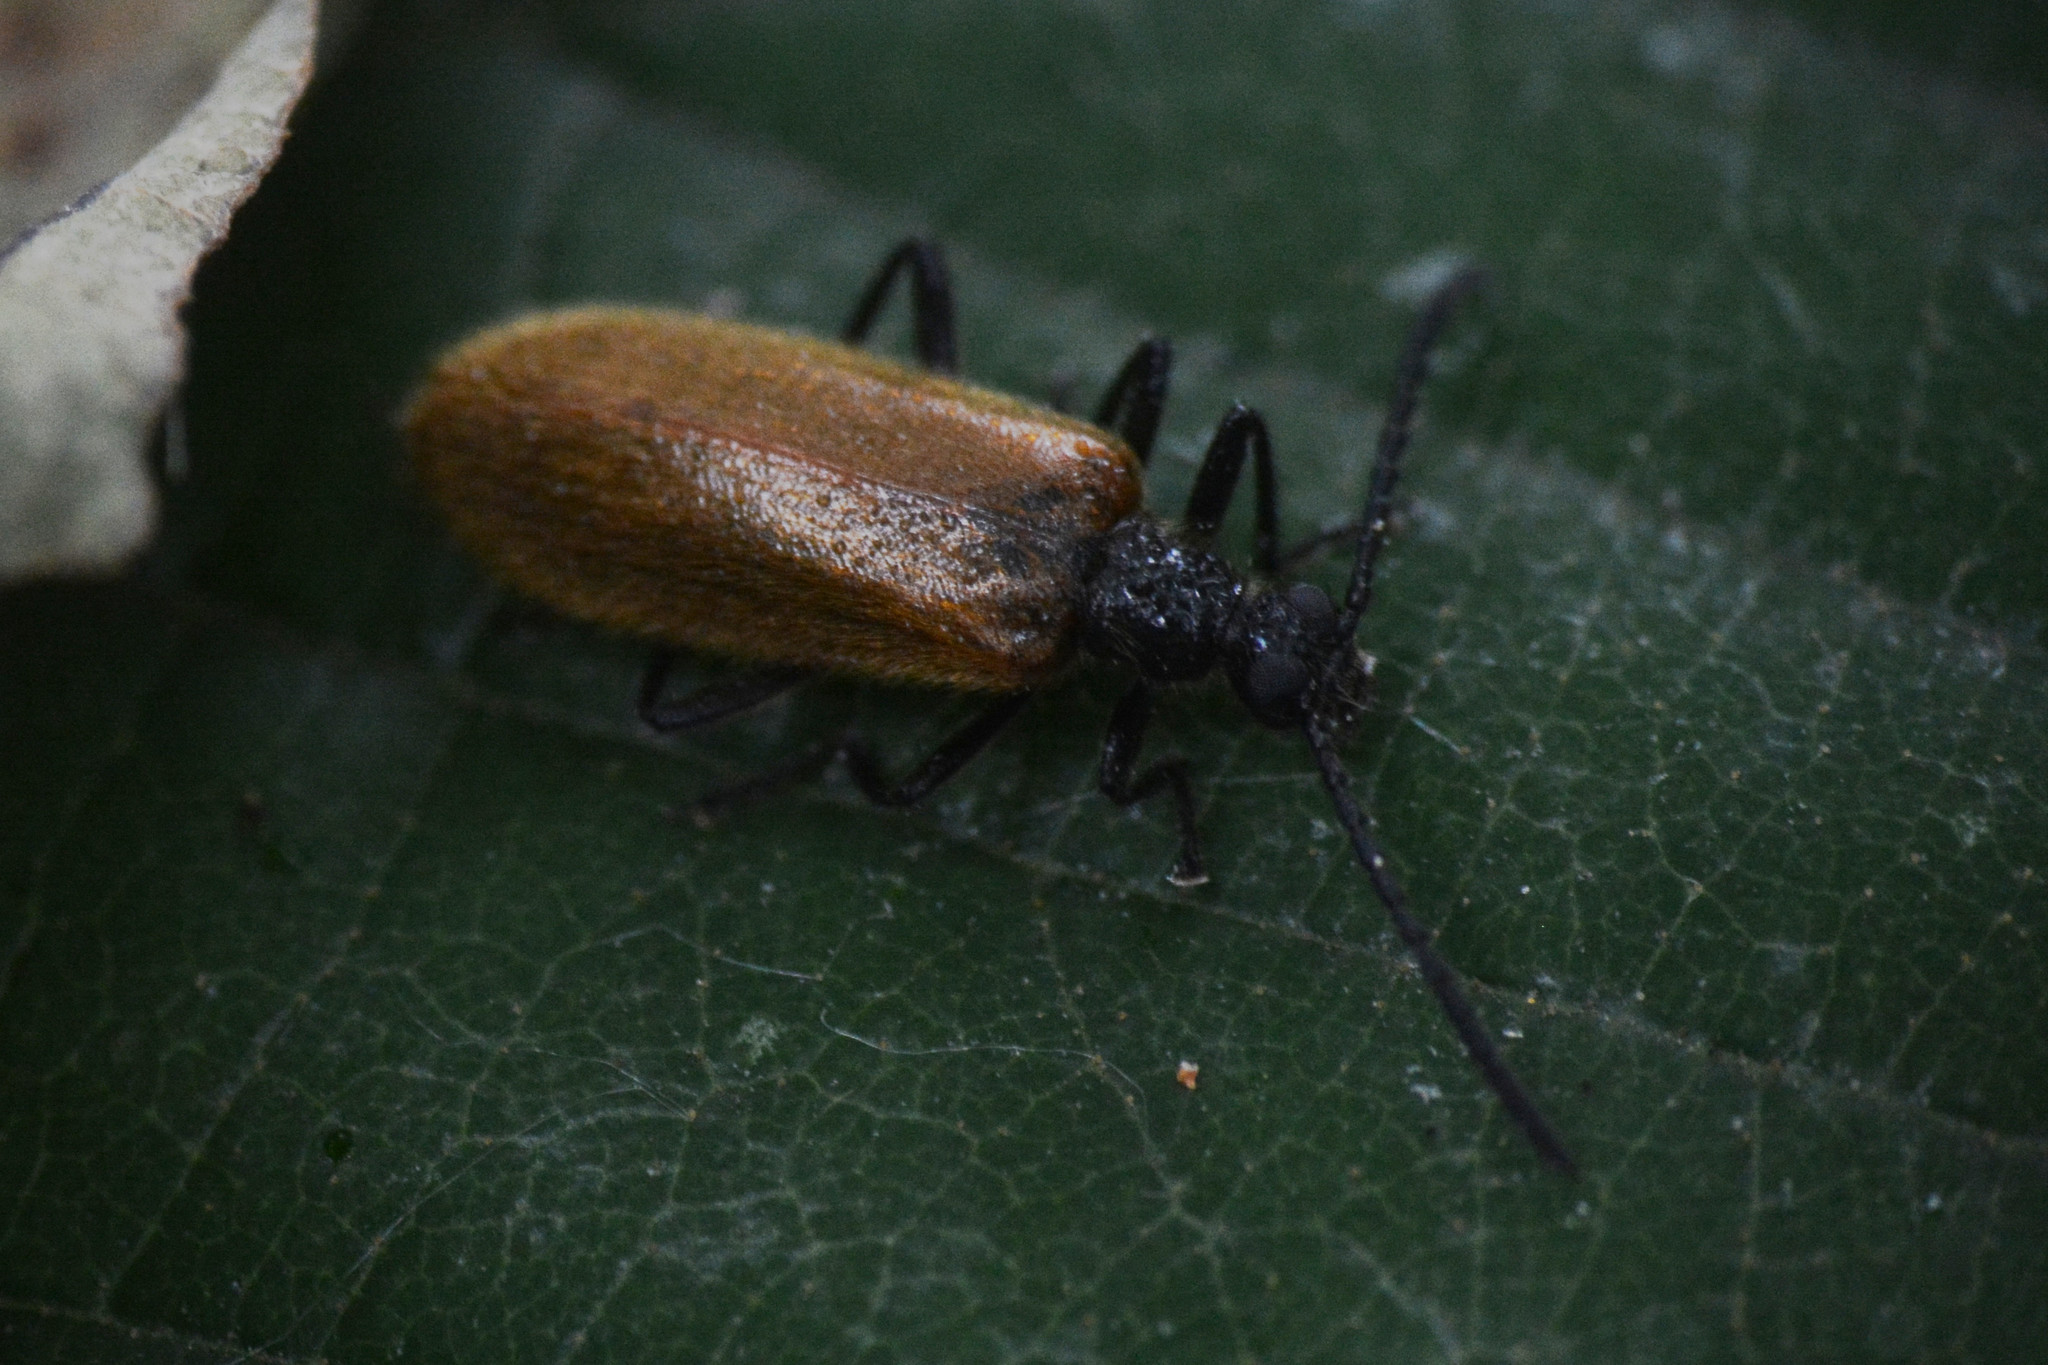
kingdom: Animalia
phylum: Arthropoda
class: Insecta
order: Coleoptera
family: Tenebrionidae
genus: Lagria
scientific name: Lagria hirta
